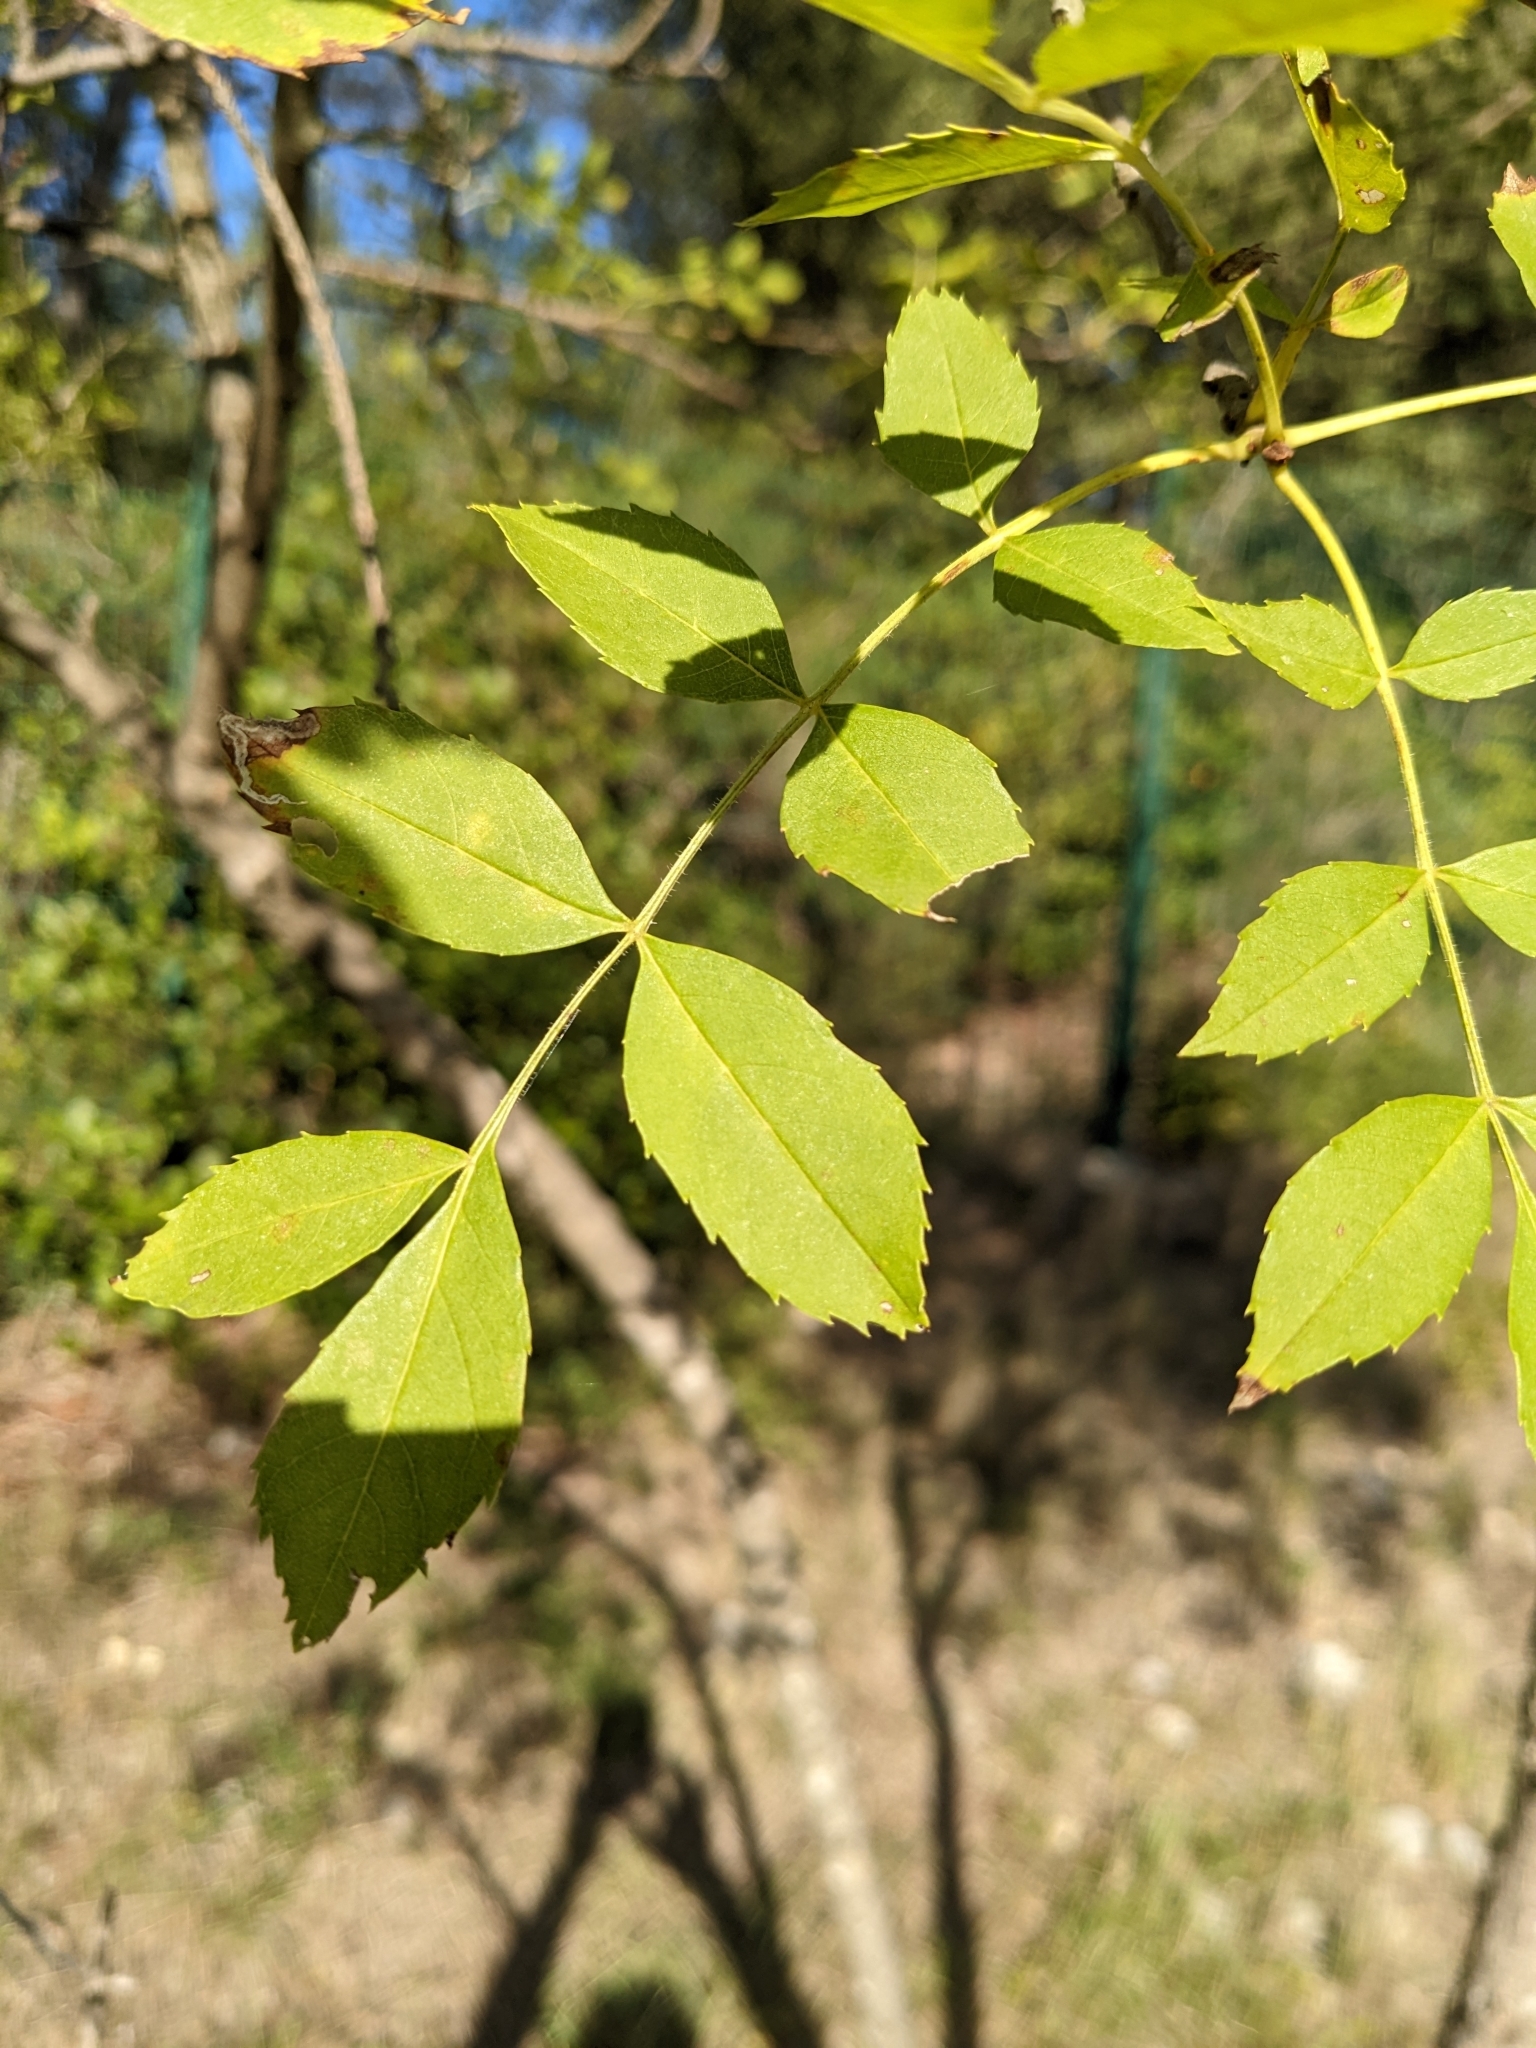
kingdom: Plantae
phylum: Tracheophyta
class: Magnoliopsida
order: Lamiales
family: Oleaceae
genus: Fraxinus
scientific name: Fraxinus angustifolia
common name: Narrow-leafed ash
